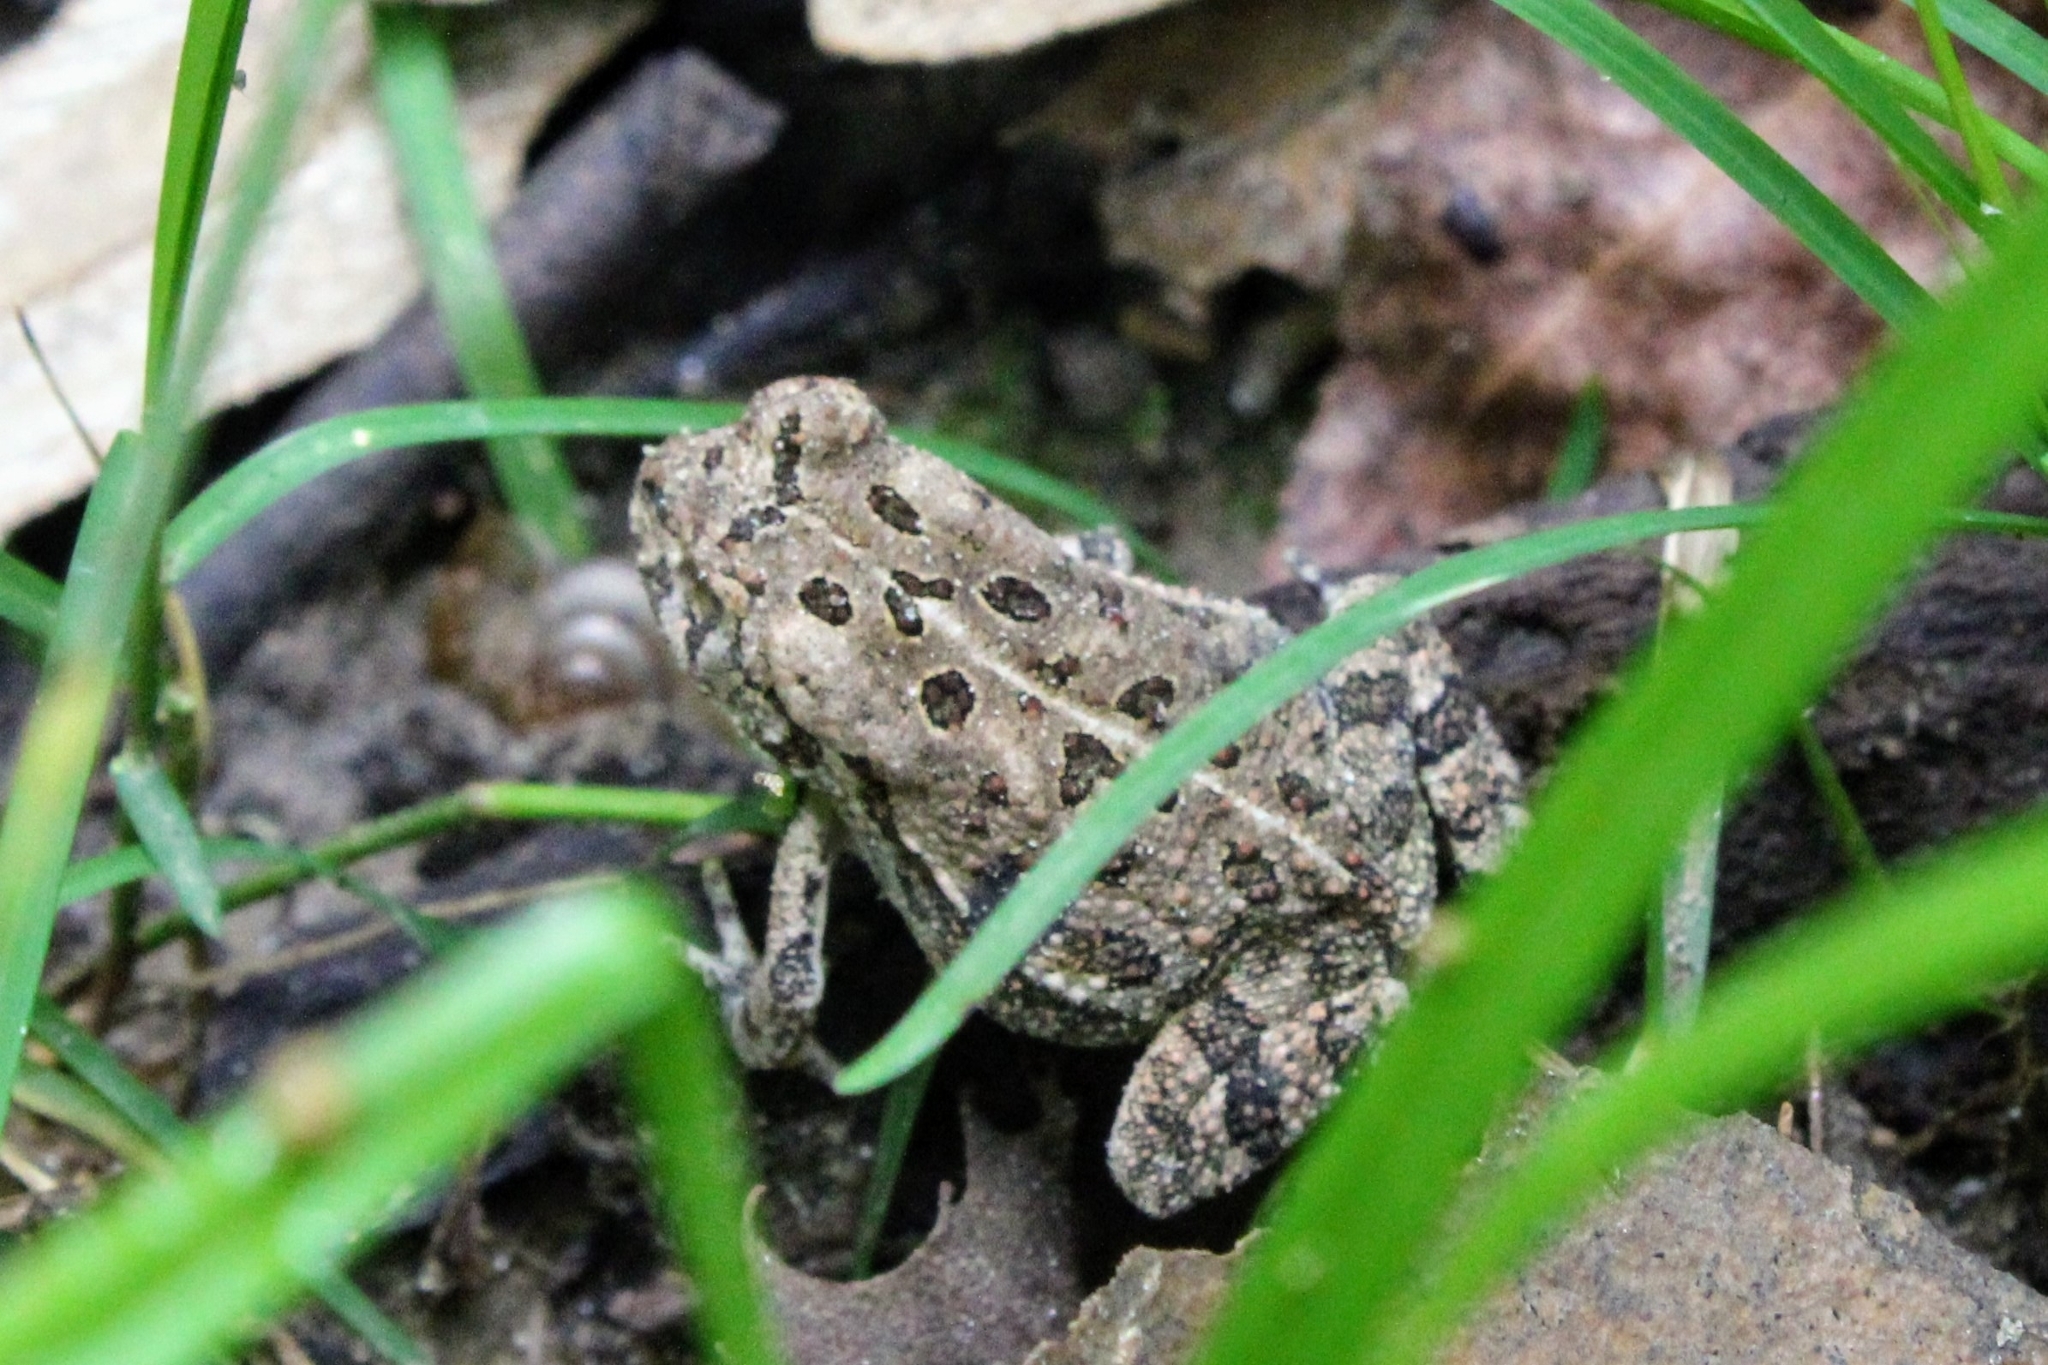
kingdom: Animalia
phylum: Chordata
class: Amphibia
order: Anura
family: Bufonidae
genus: Anaxyrus
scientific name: Anaxyrus fowleri
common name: Fowler's toad
